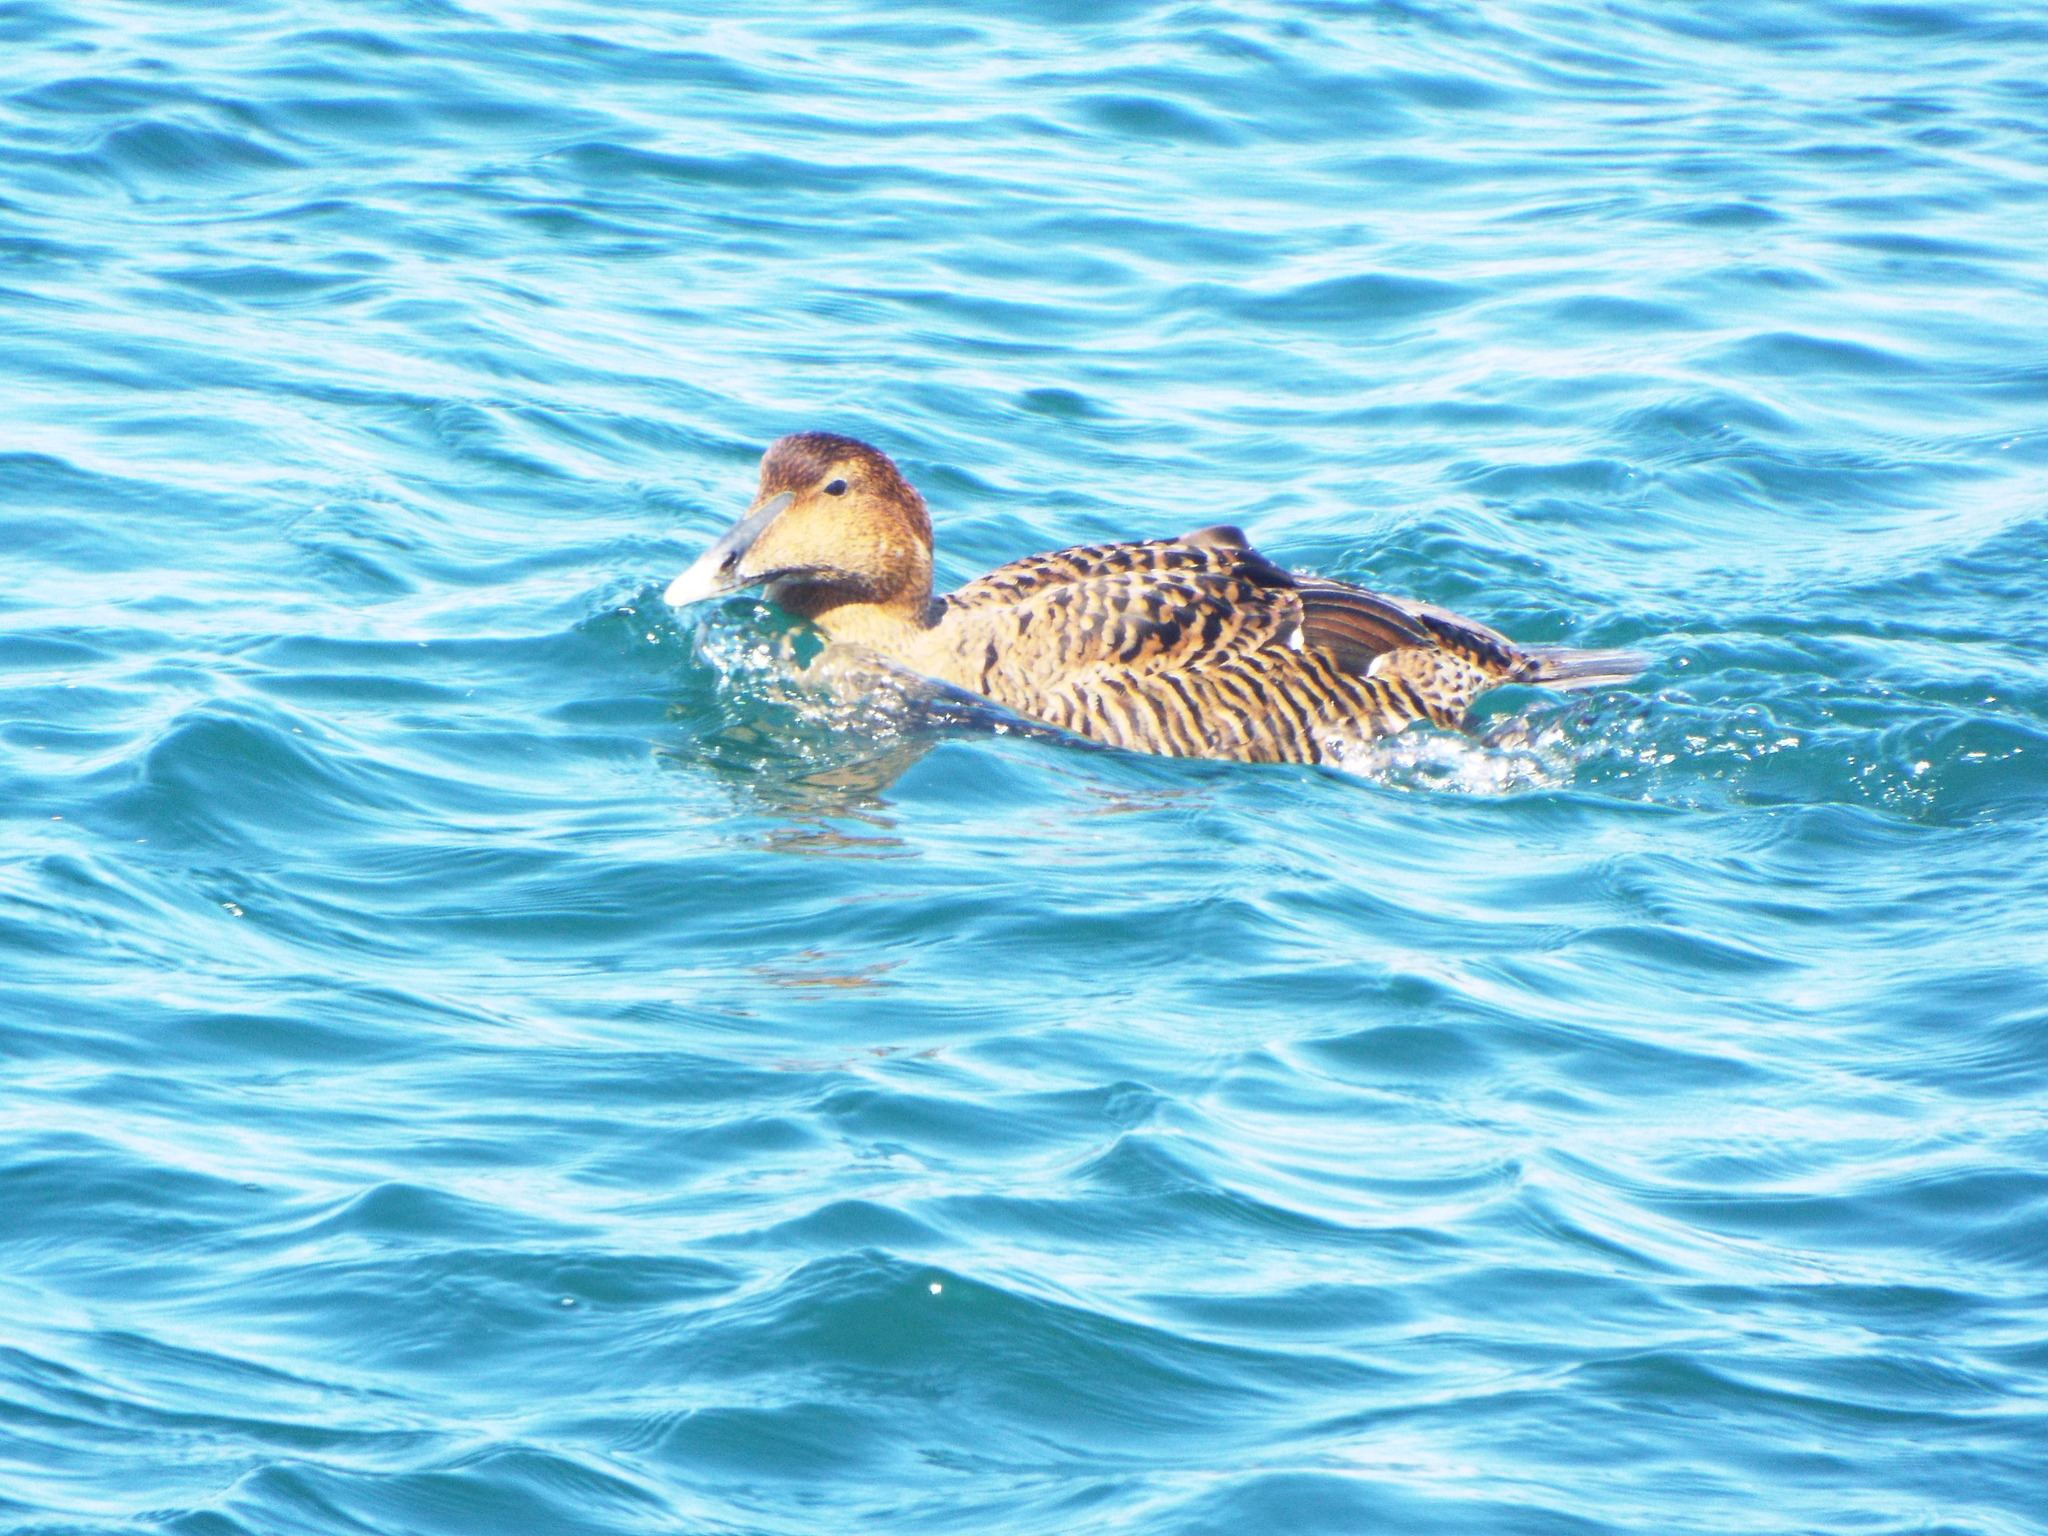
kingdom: Animalia
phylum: Chordata
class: Aves
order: Anseriformes
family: Anatidae
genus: Somateria
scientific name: Somateria mollissima
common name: Common eider
